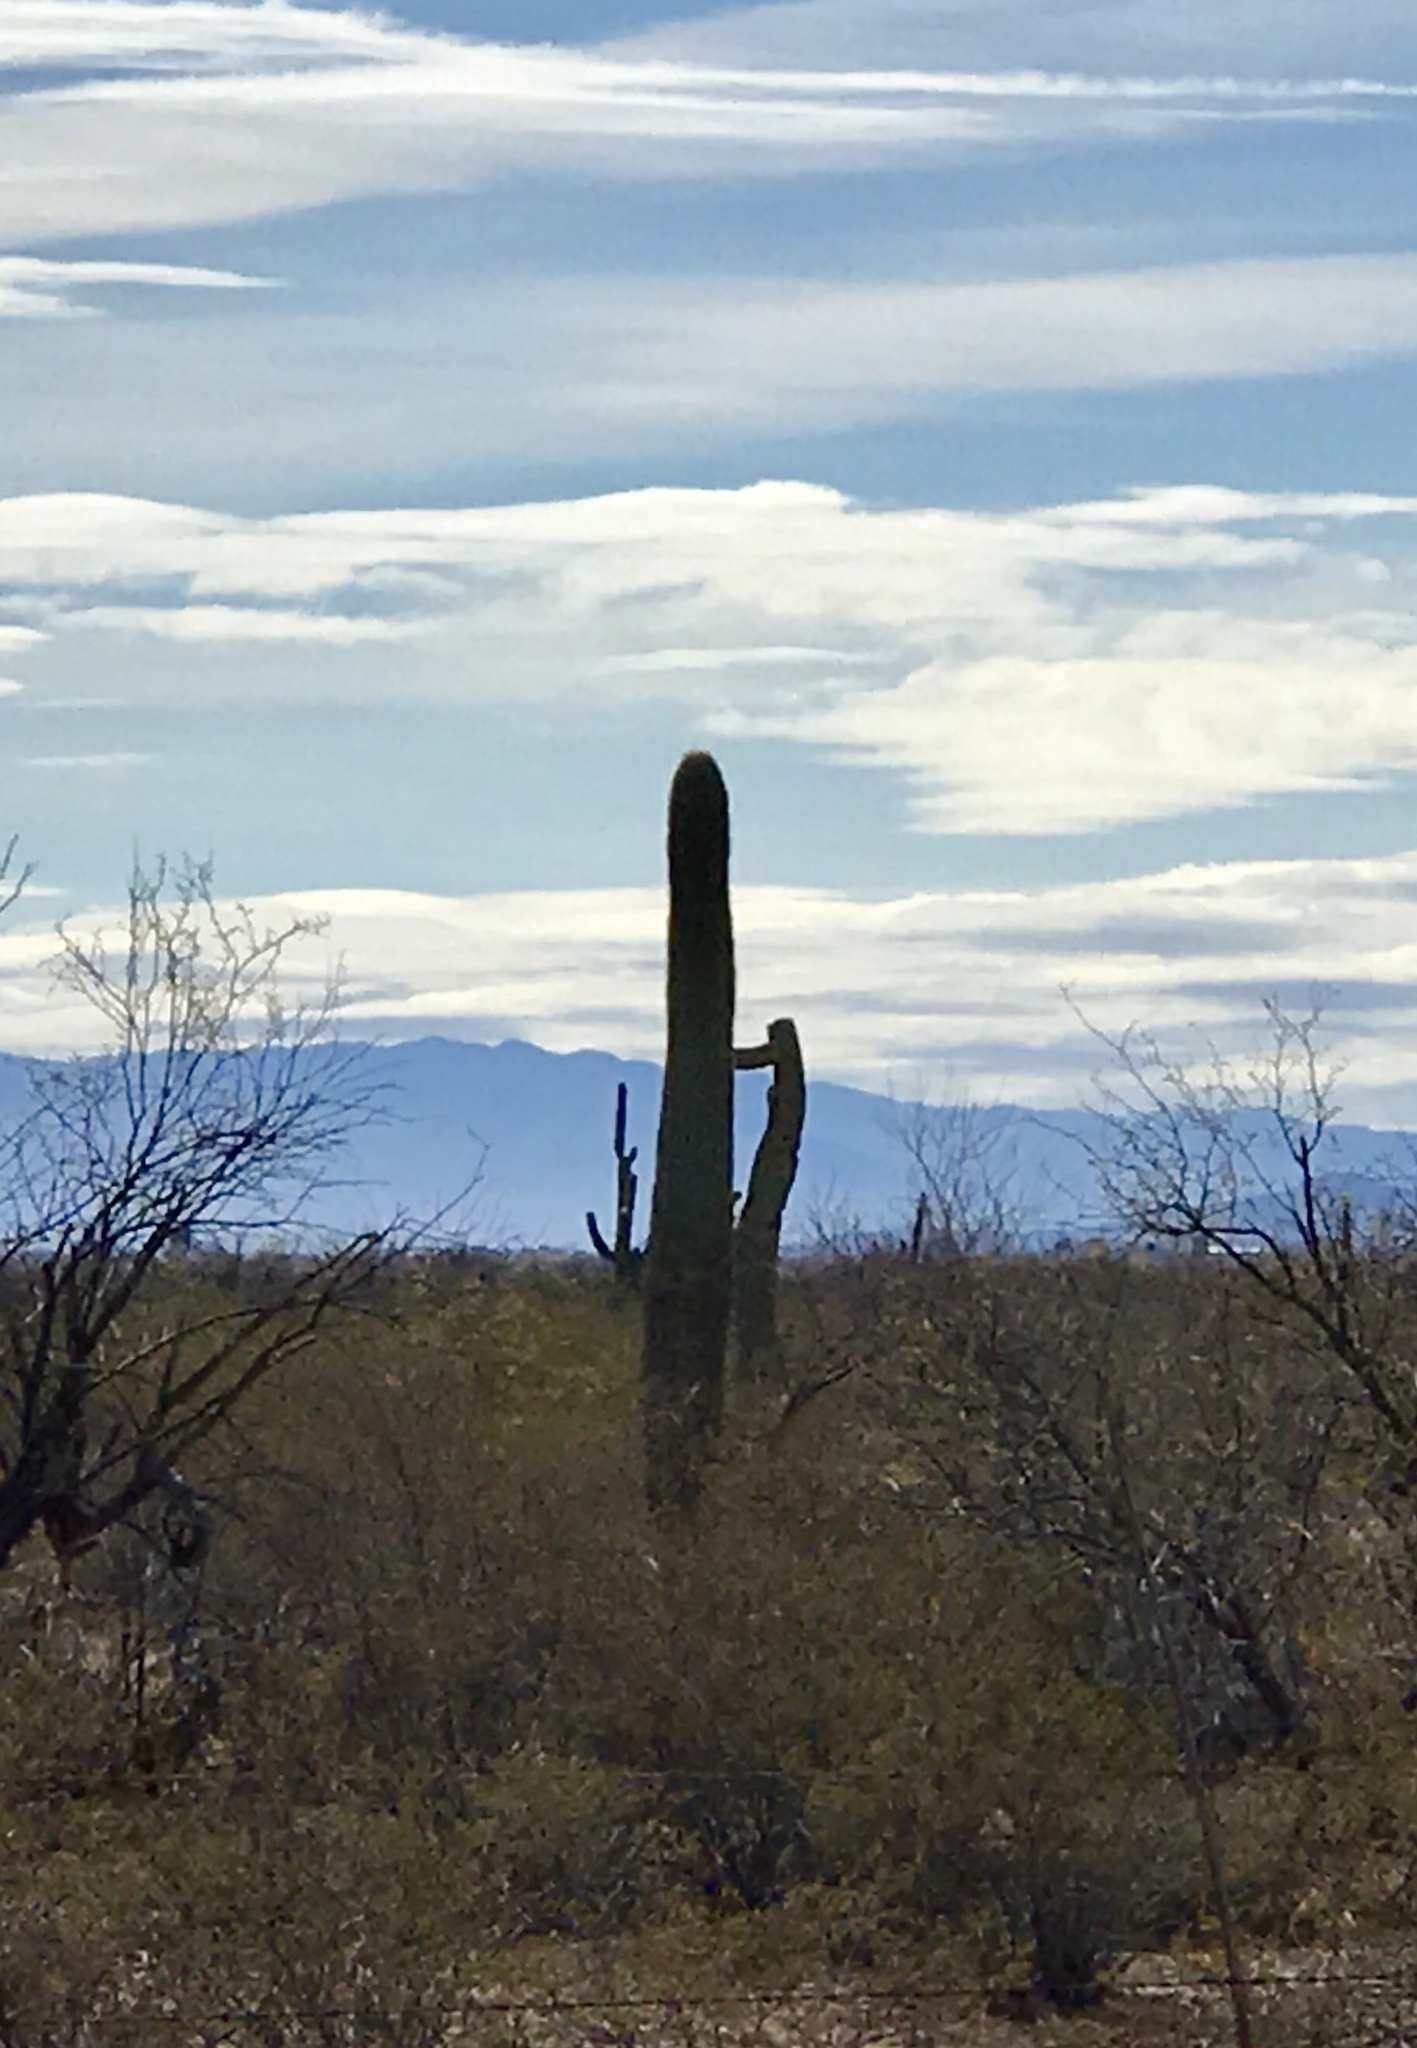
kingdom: Plantae
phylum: Tracheophyta
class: Magnoliopsida
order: Caryophyllales
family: Cactaceae
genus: Carnegiea
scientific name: Carnegiea gigantea
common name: Saguaro
